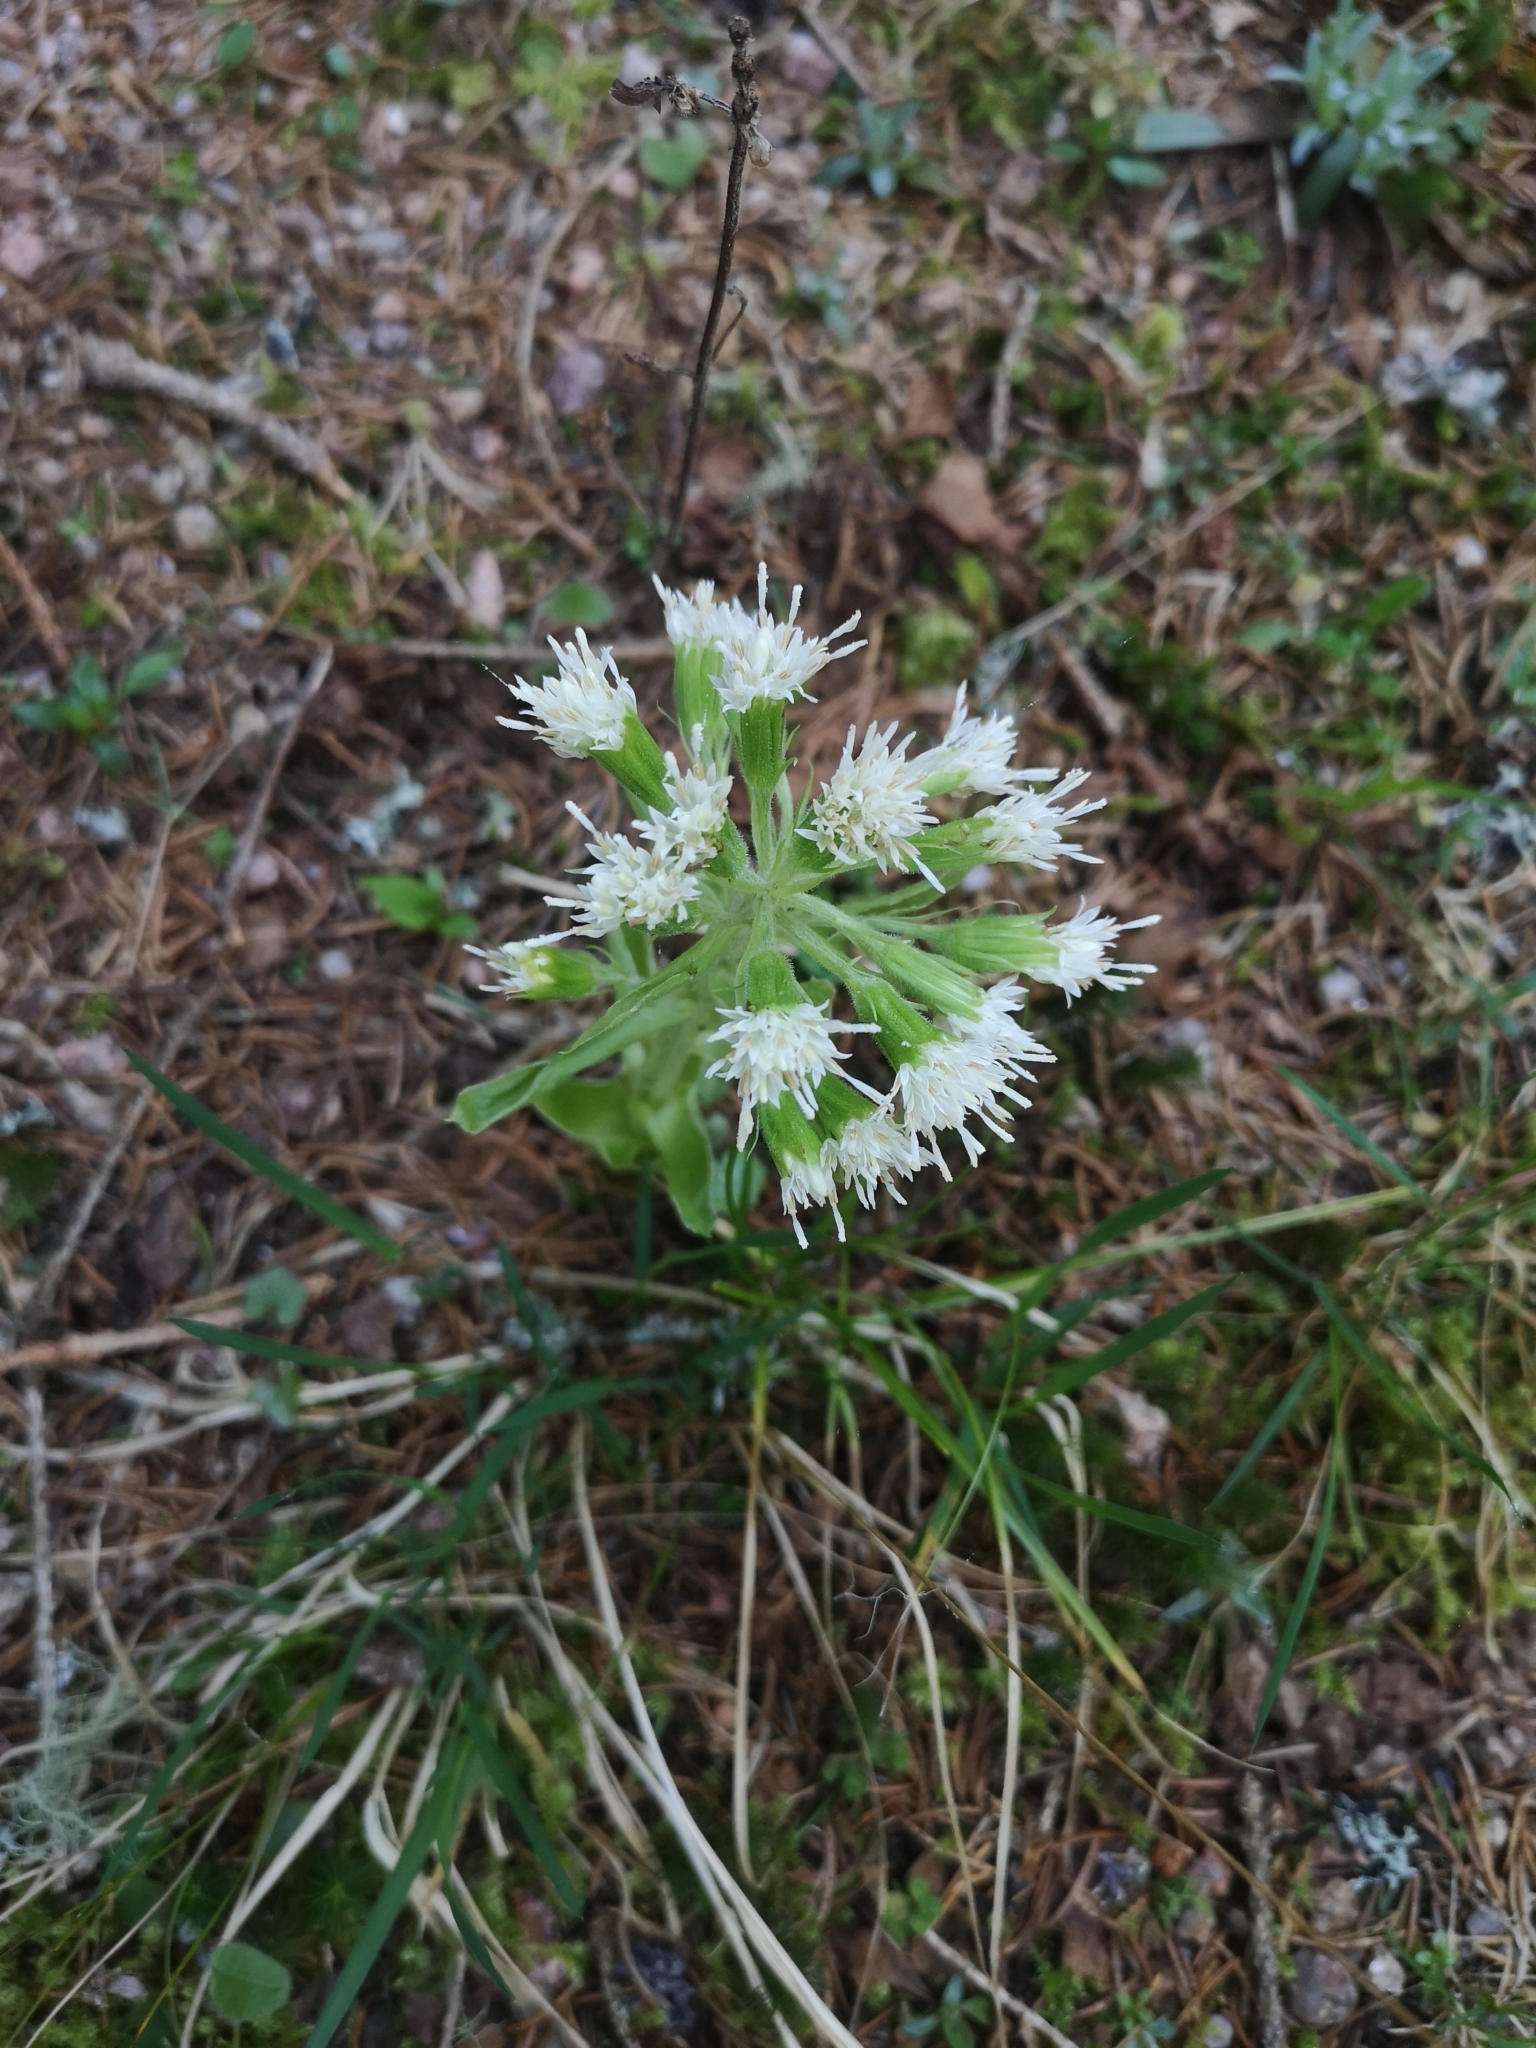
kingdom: Plantae
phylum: Tracheophyta
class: Magnoliopsida
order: Asterales
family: Asteraceae
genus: Petasites
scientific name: Petasites albus
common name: White butterbur
